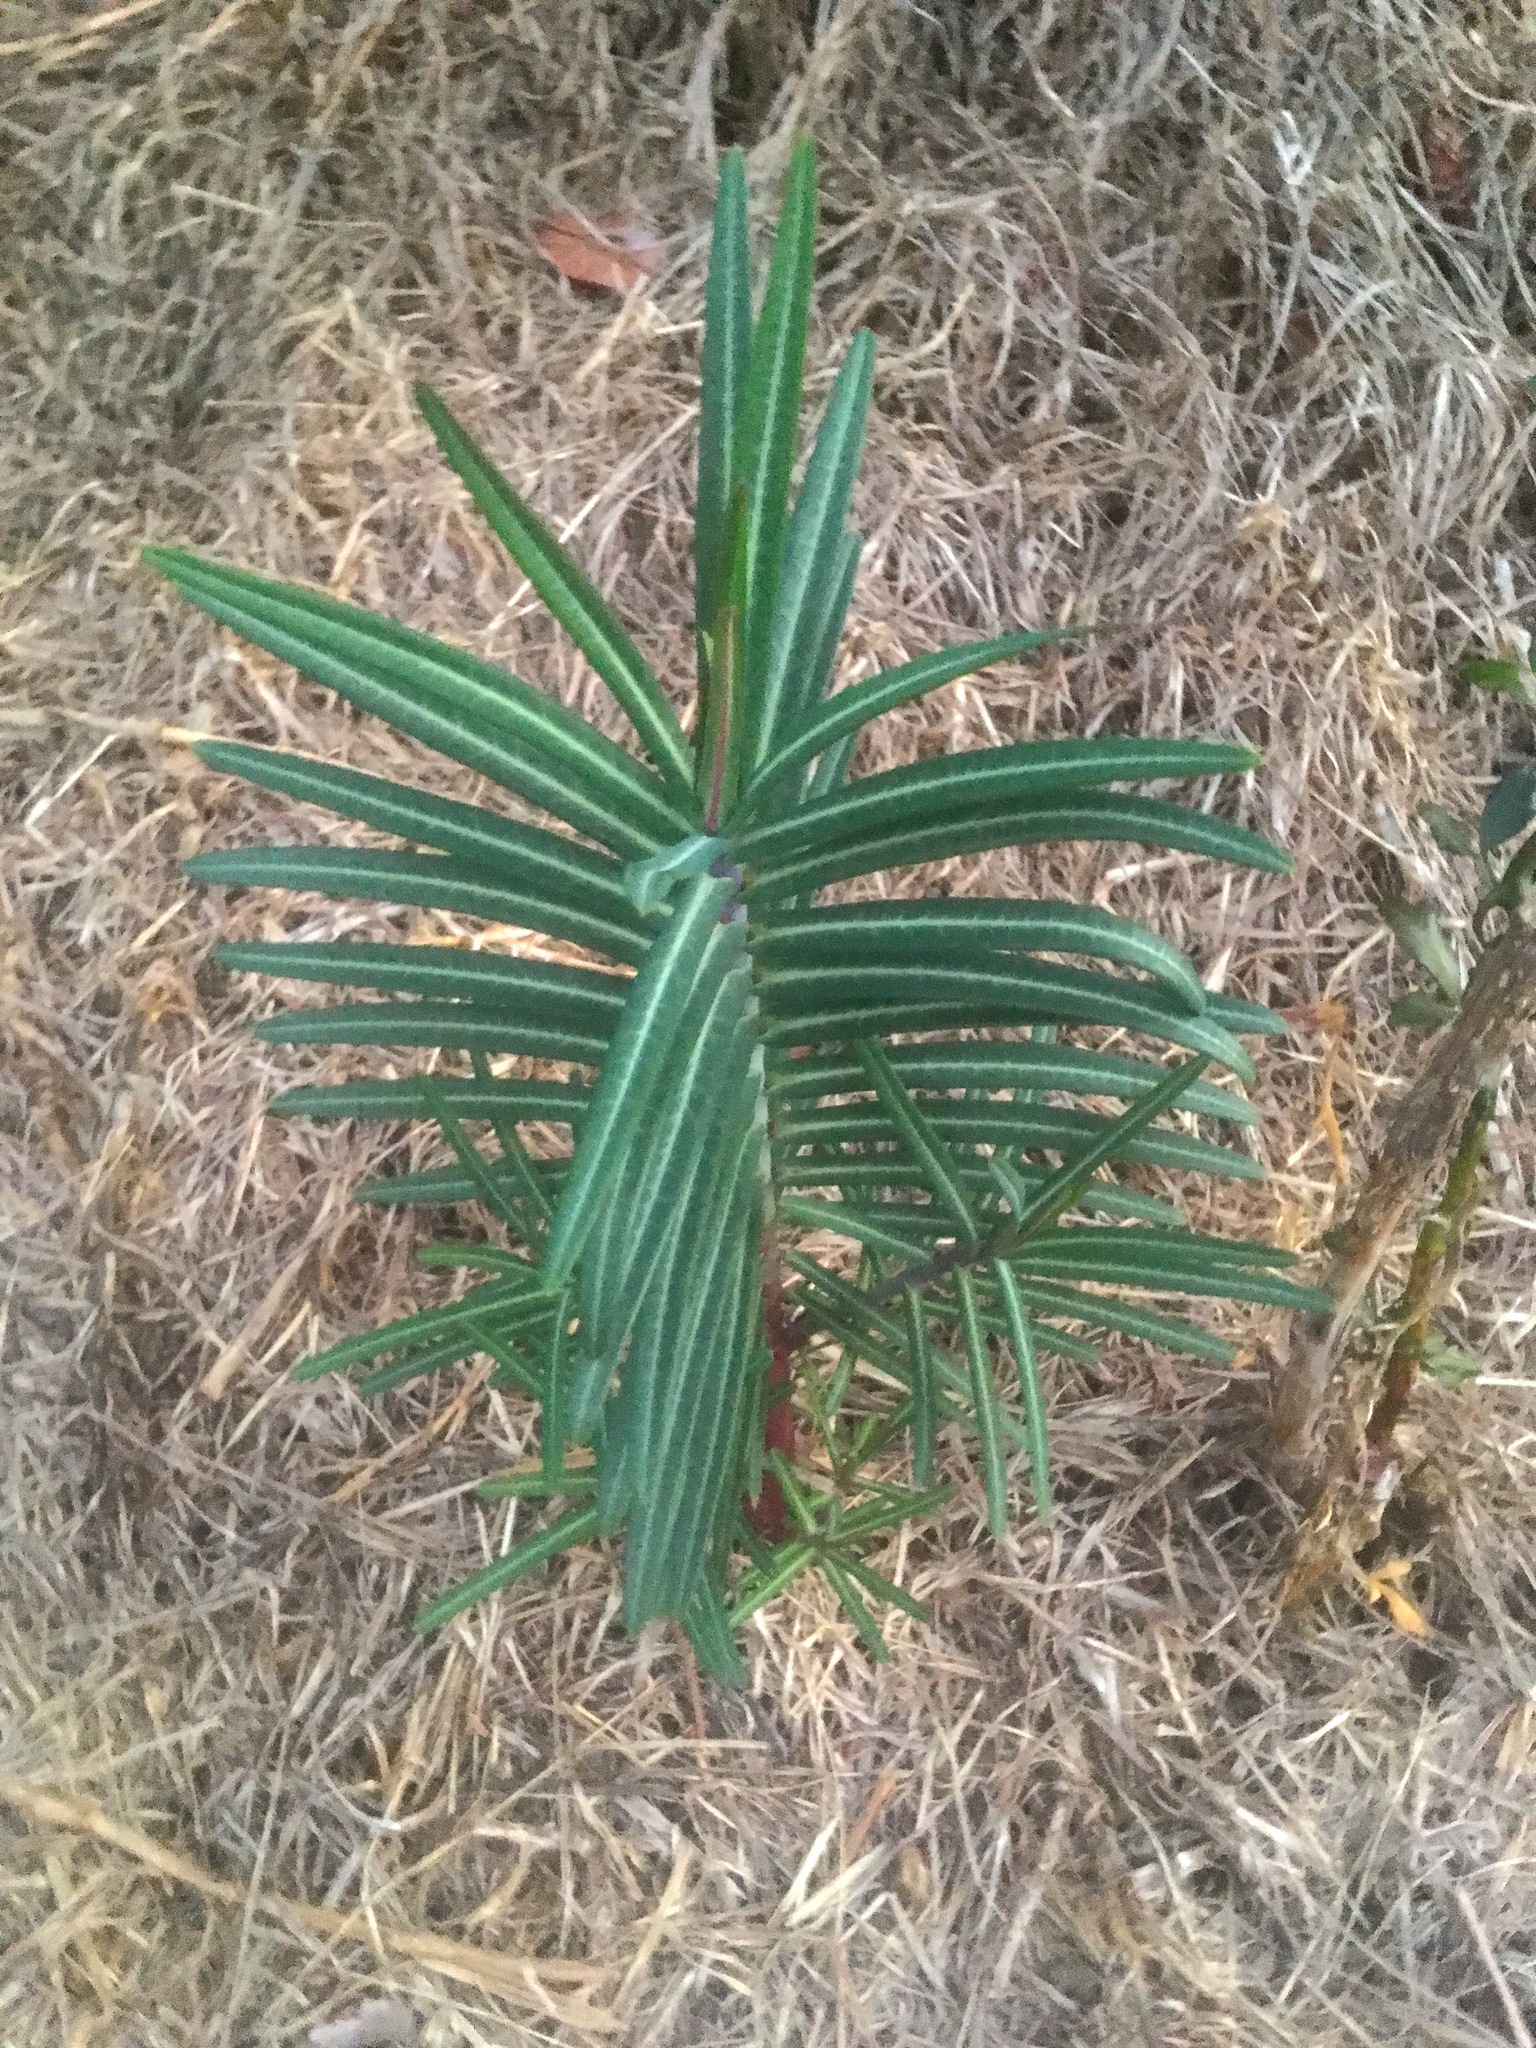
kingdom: Plantae
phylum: Tracheophyta
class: Magnoliopsida
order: Malpighiales
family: Euphorbiaceae
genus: Euphorbia
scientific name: Euphorbia lathyris
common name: Caper spurge
